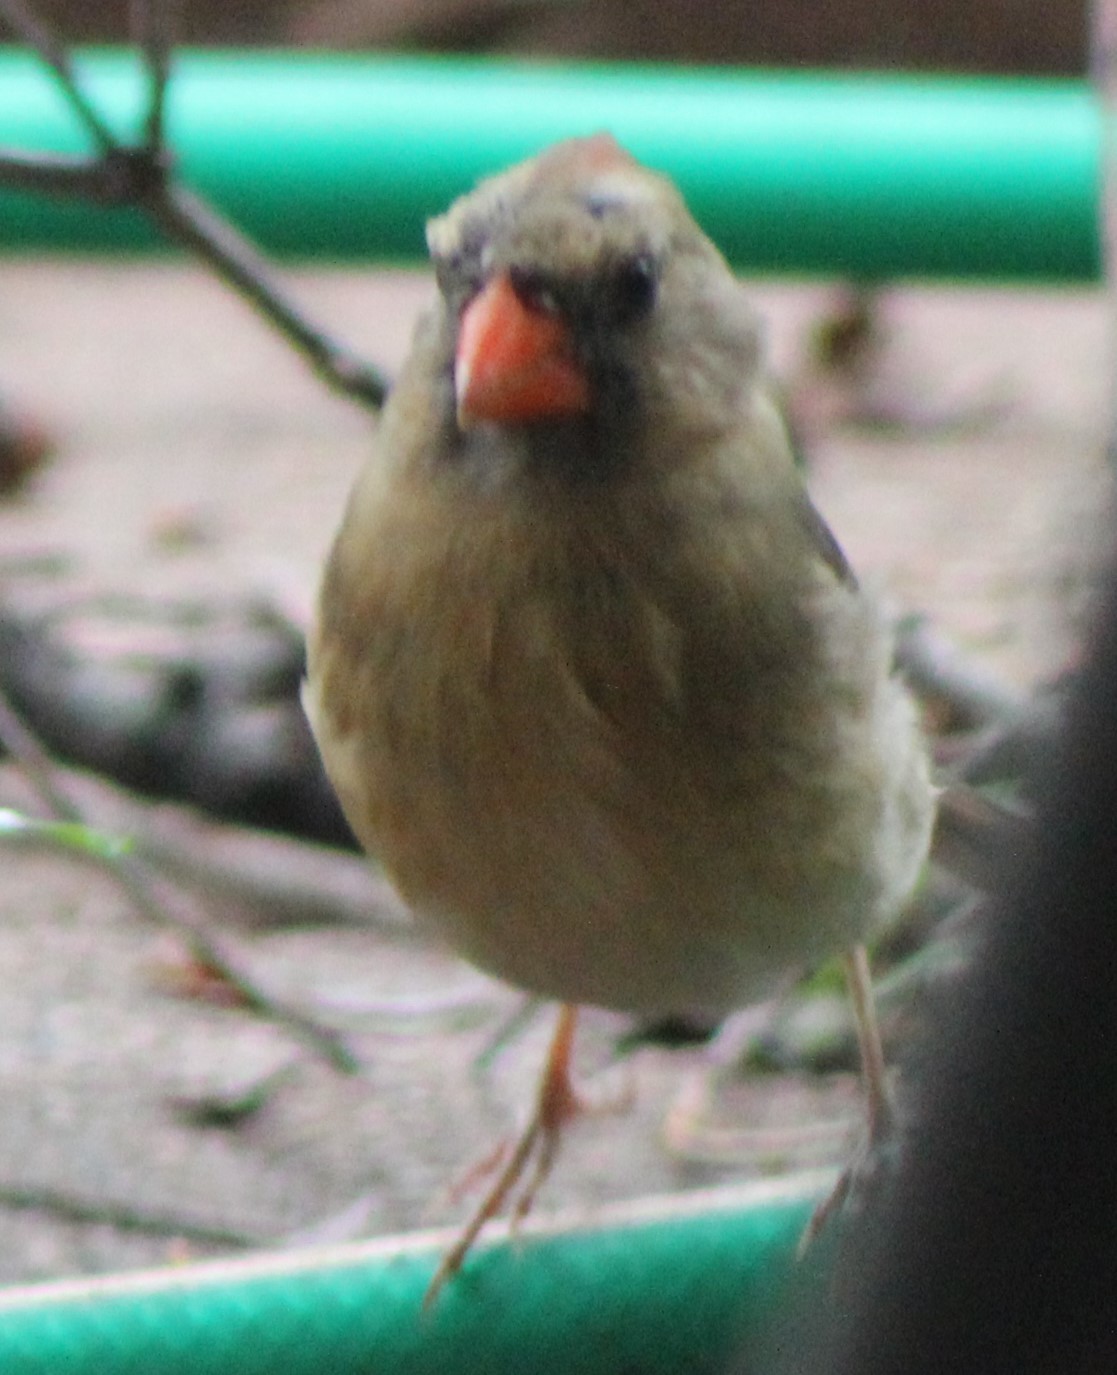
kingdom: Animalia
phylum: Chordata
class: Aves
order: Passeriformes
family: Cardinalidae
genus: Cardinalis
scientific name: Cardinalis cardinalis
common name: Northern cardinal
